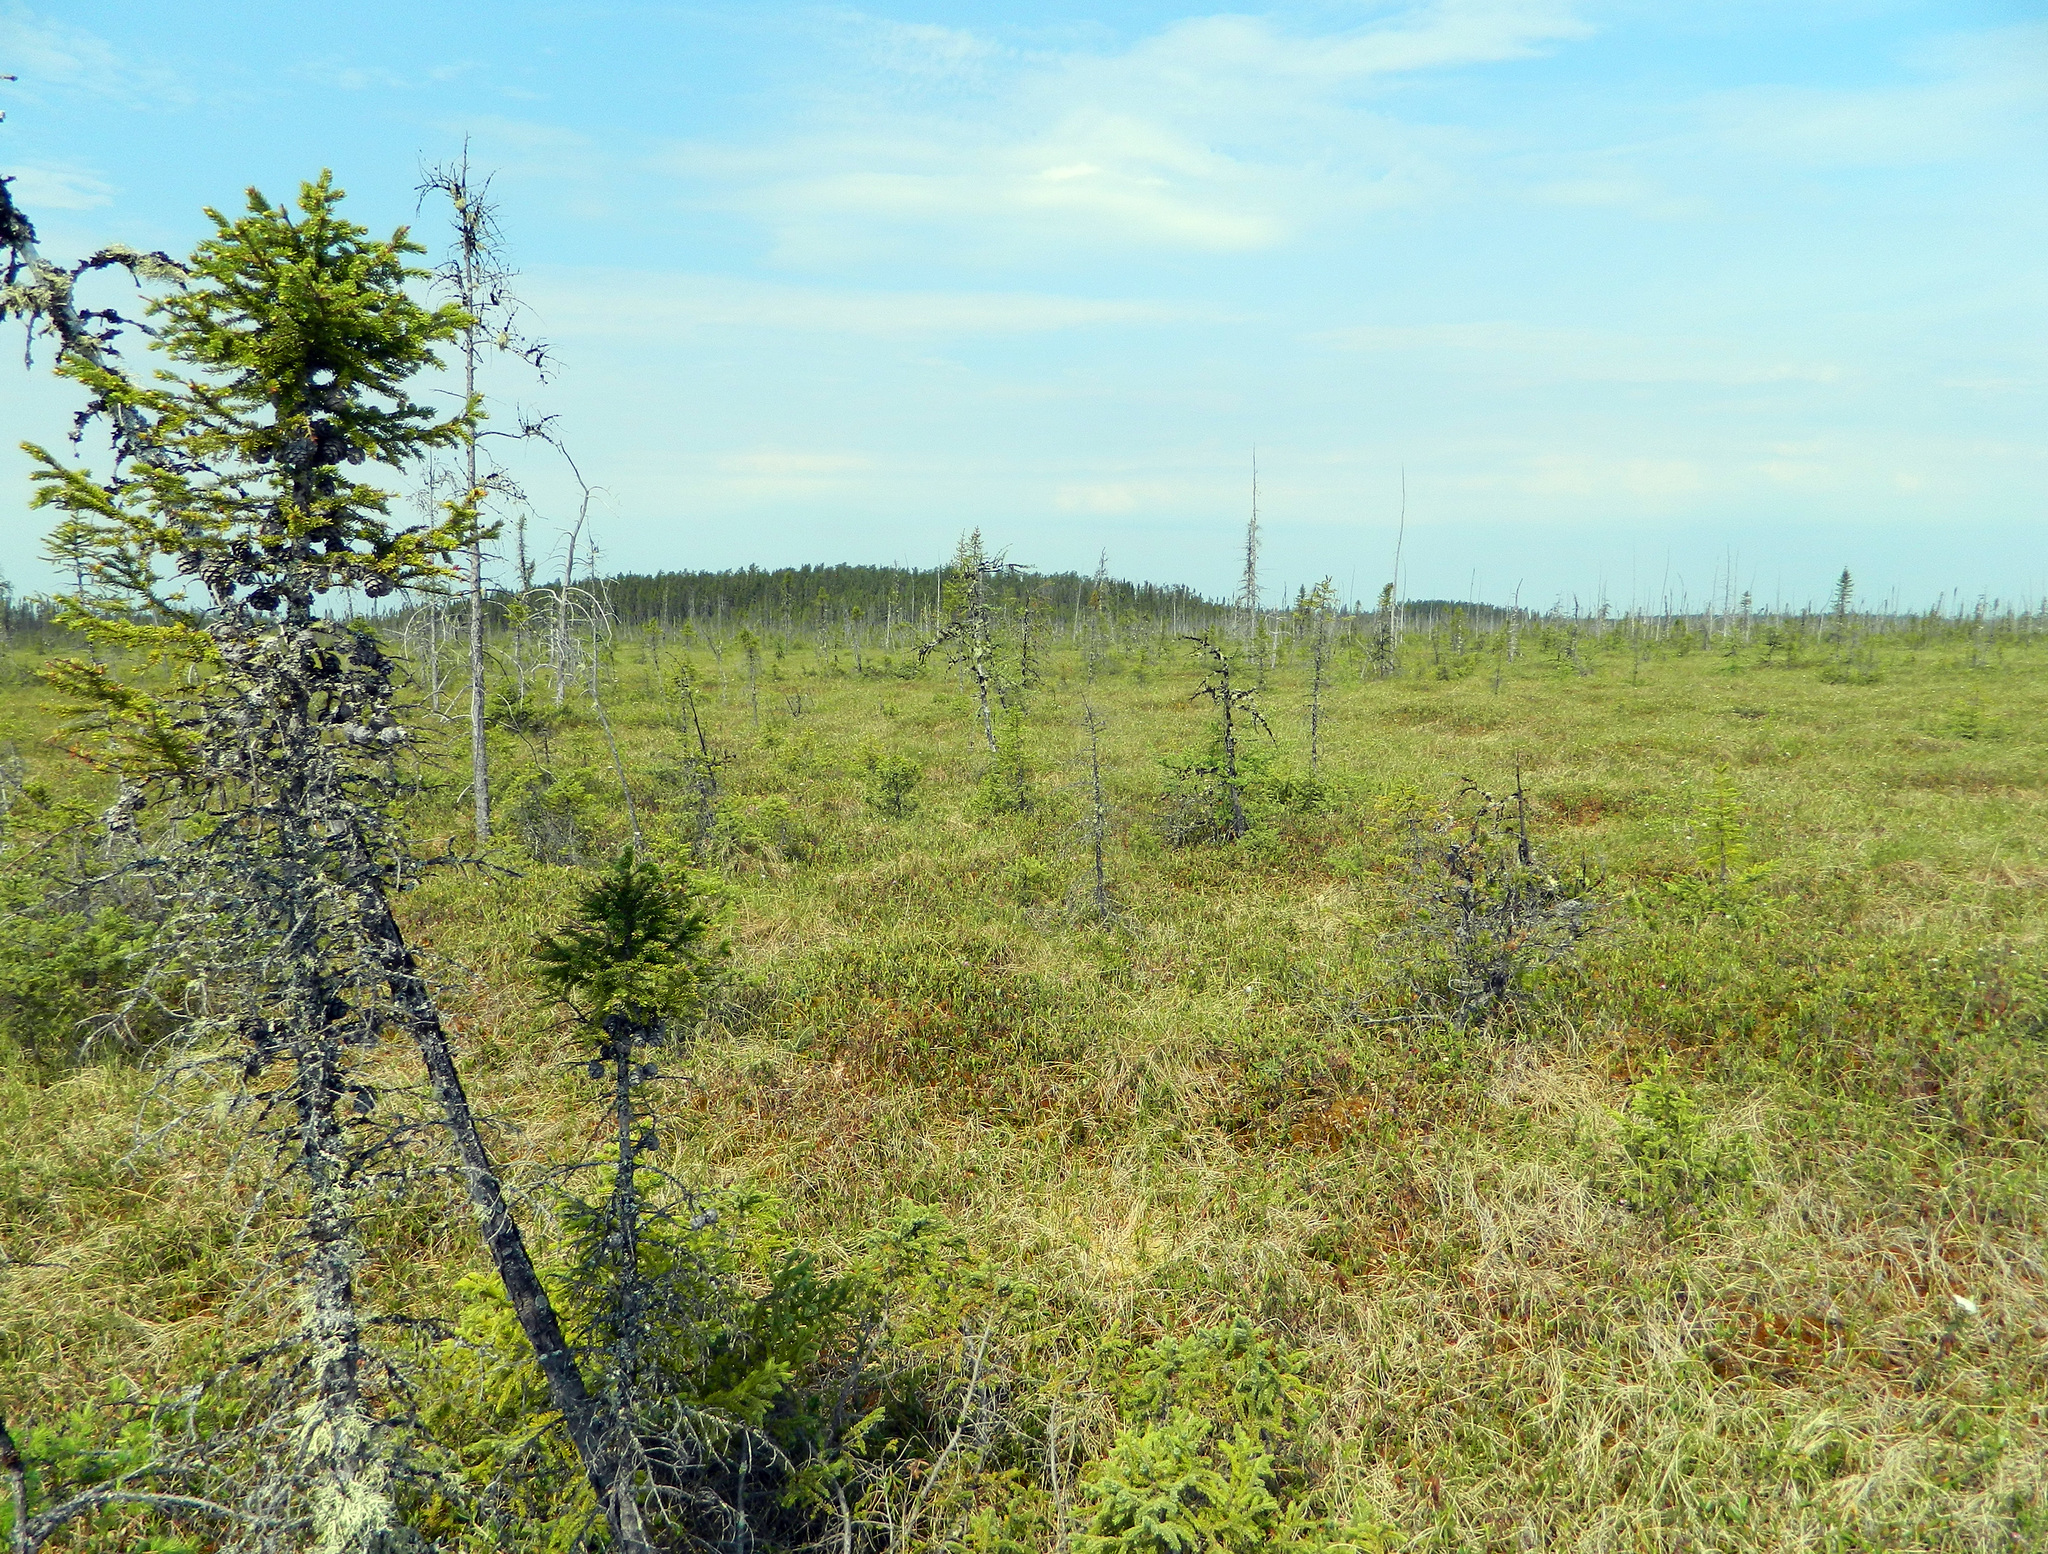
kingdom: Plantae
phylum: Tracheophyta
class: Pinopsida
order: Pinales
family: Pinaceae
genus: Picea
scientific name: Picea mariana
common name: Black spruce
